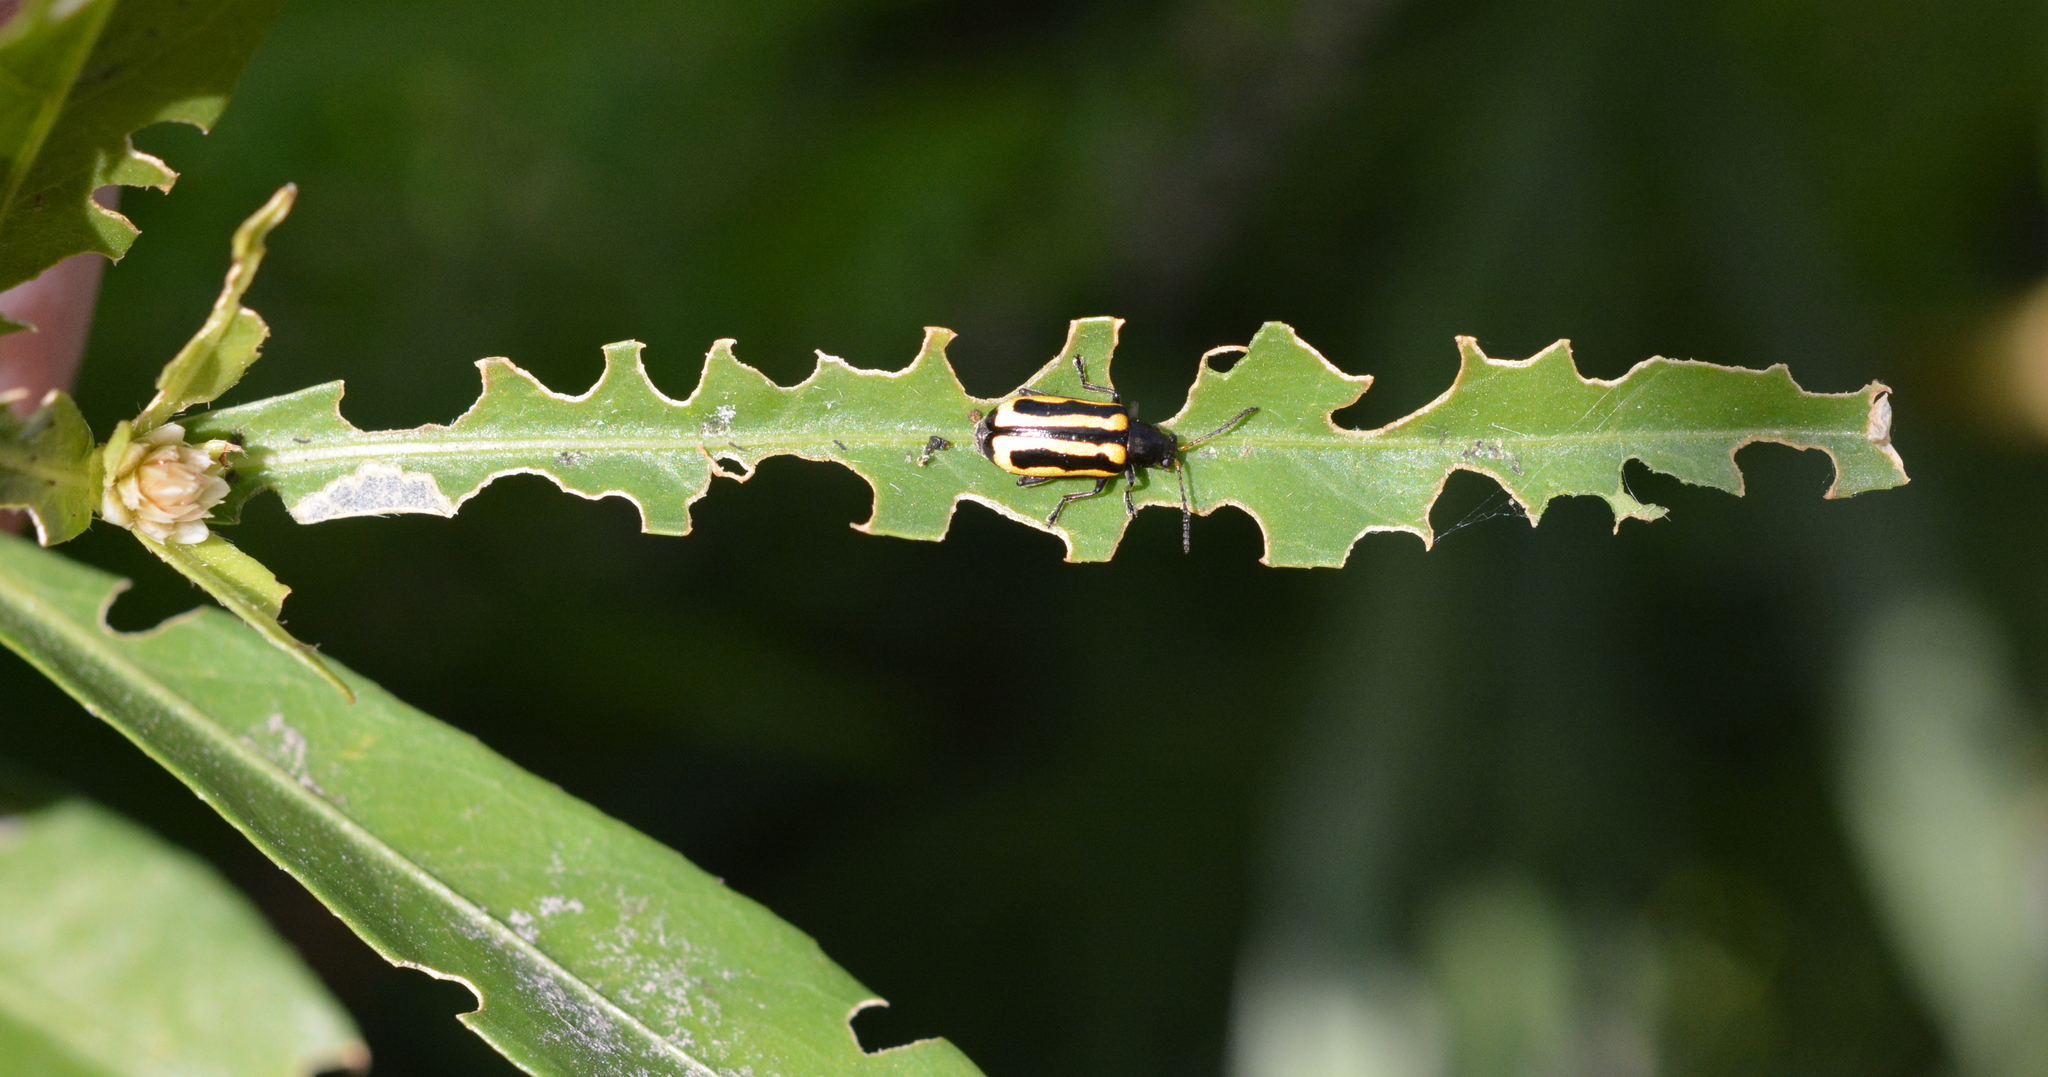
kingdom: Animalia
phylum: Arthropoda
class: Insecta
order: Coleoptera
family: Chrysomelidae
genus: Agasicles
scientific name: Agasicles hygrophila
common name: Alligatorweed flea beetle
